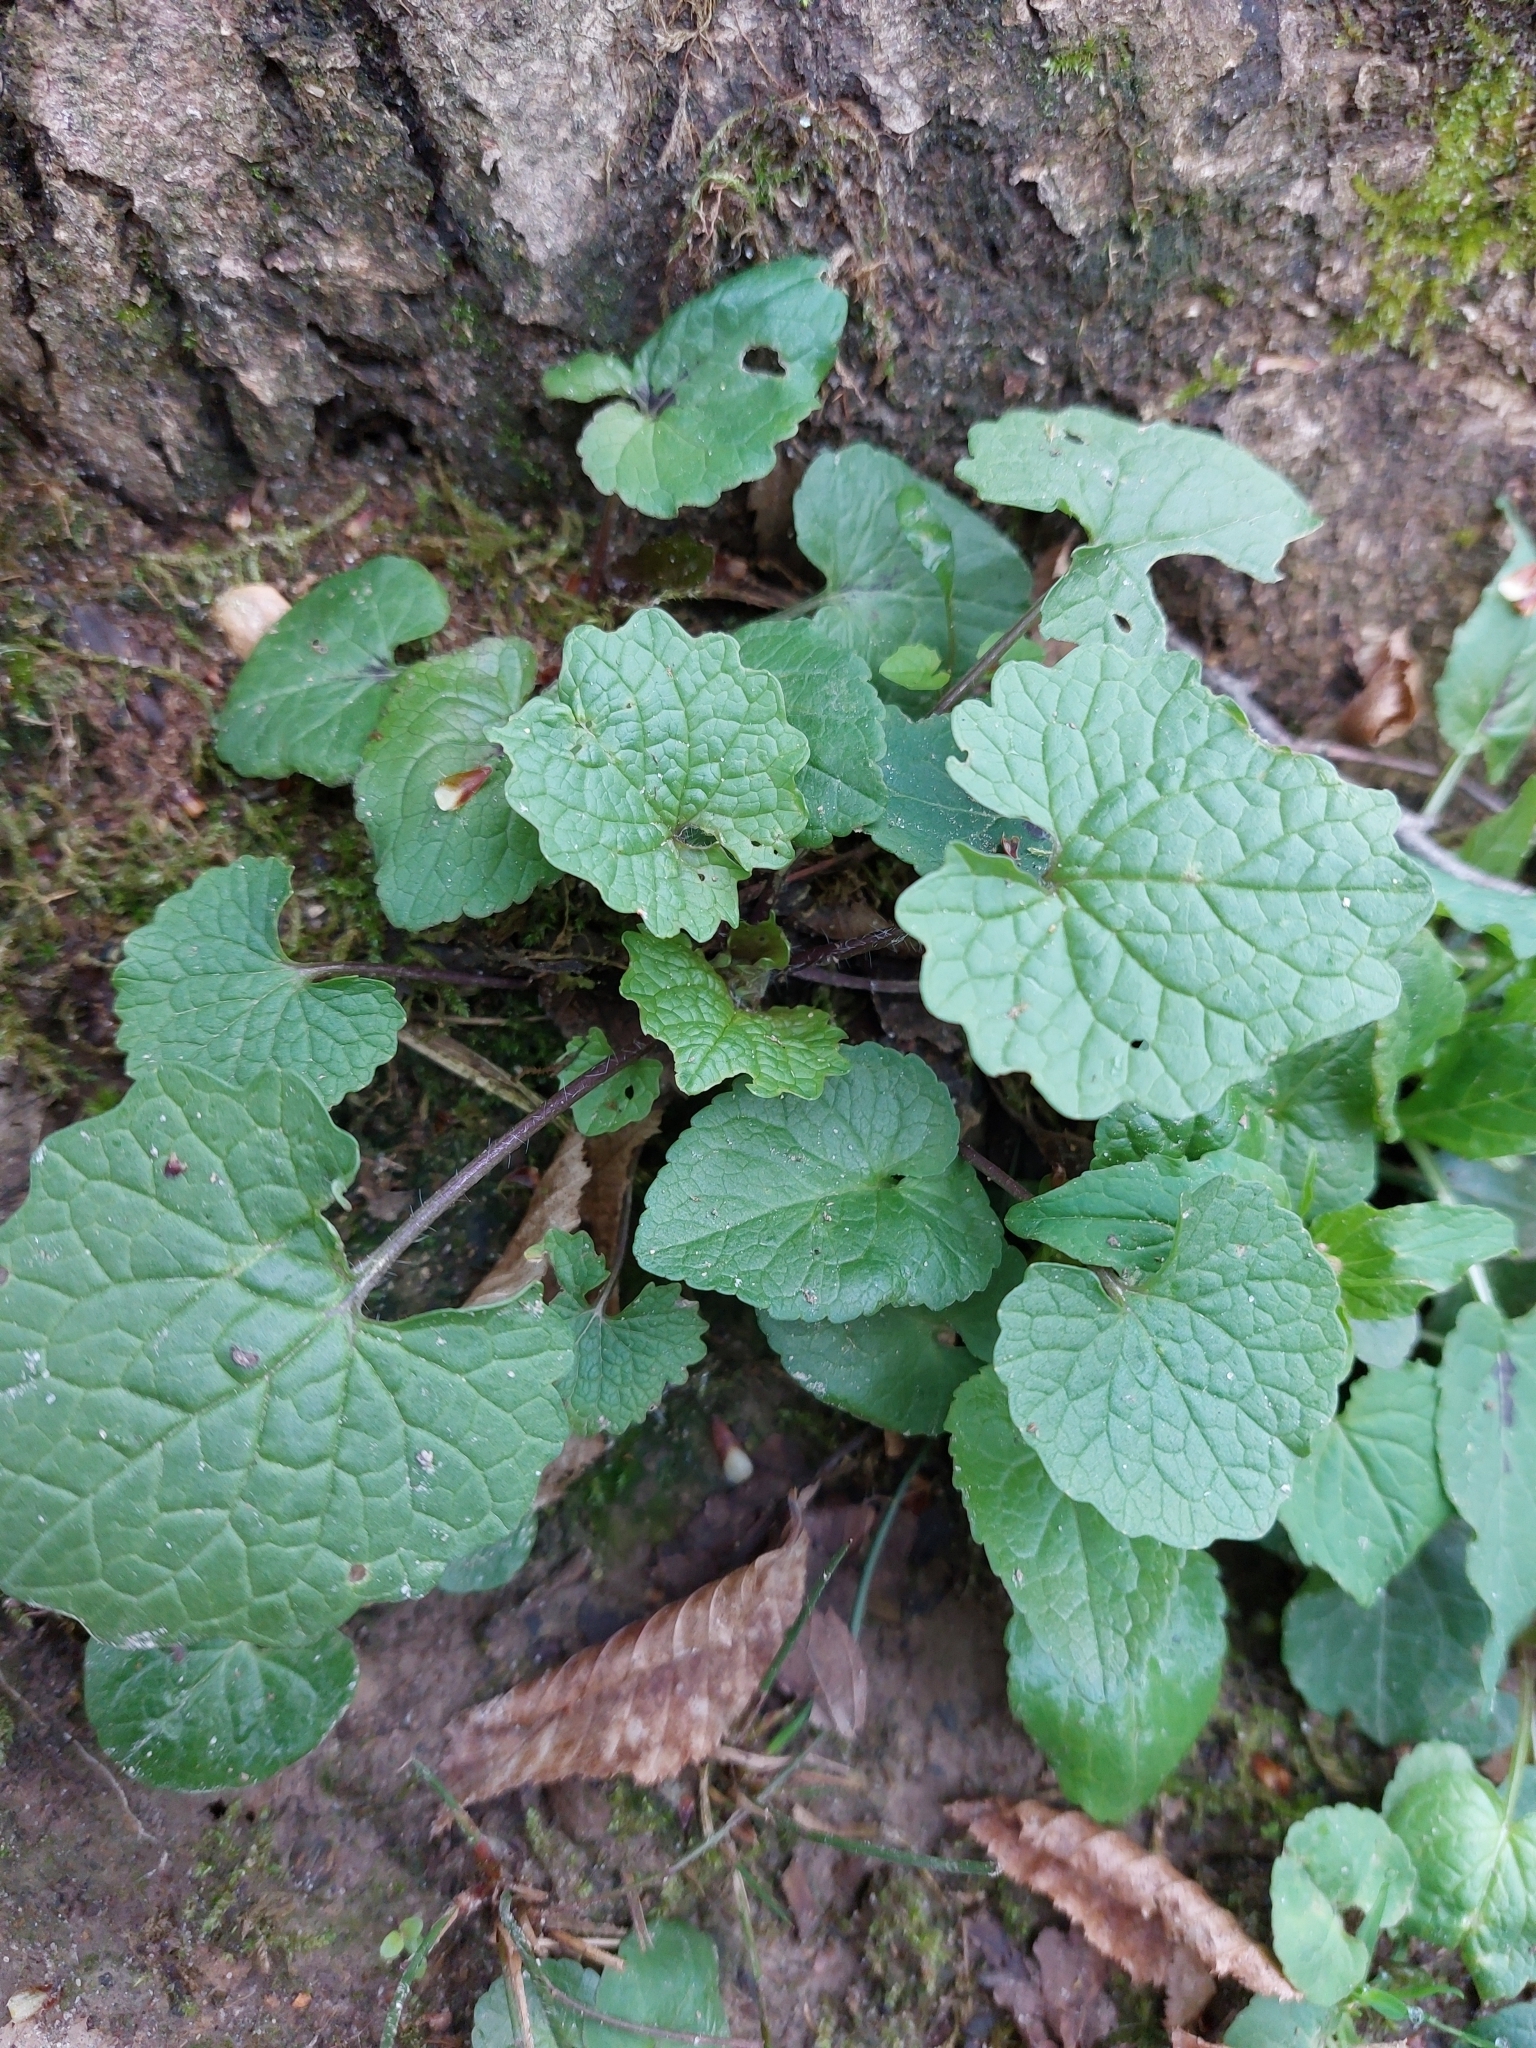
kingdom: Plantae
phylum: Tracheophyta
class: Magnoliopsida
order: Brassicales
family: Brassicaceae
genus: Alliaria
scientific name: Alliaria petiolata
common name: Garlic mustard
